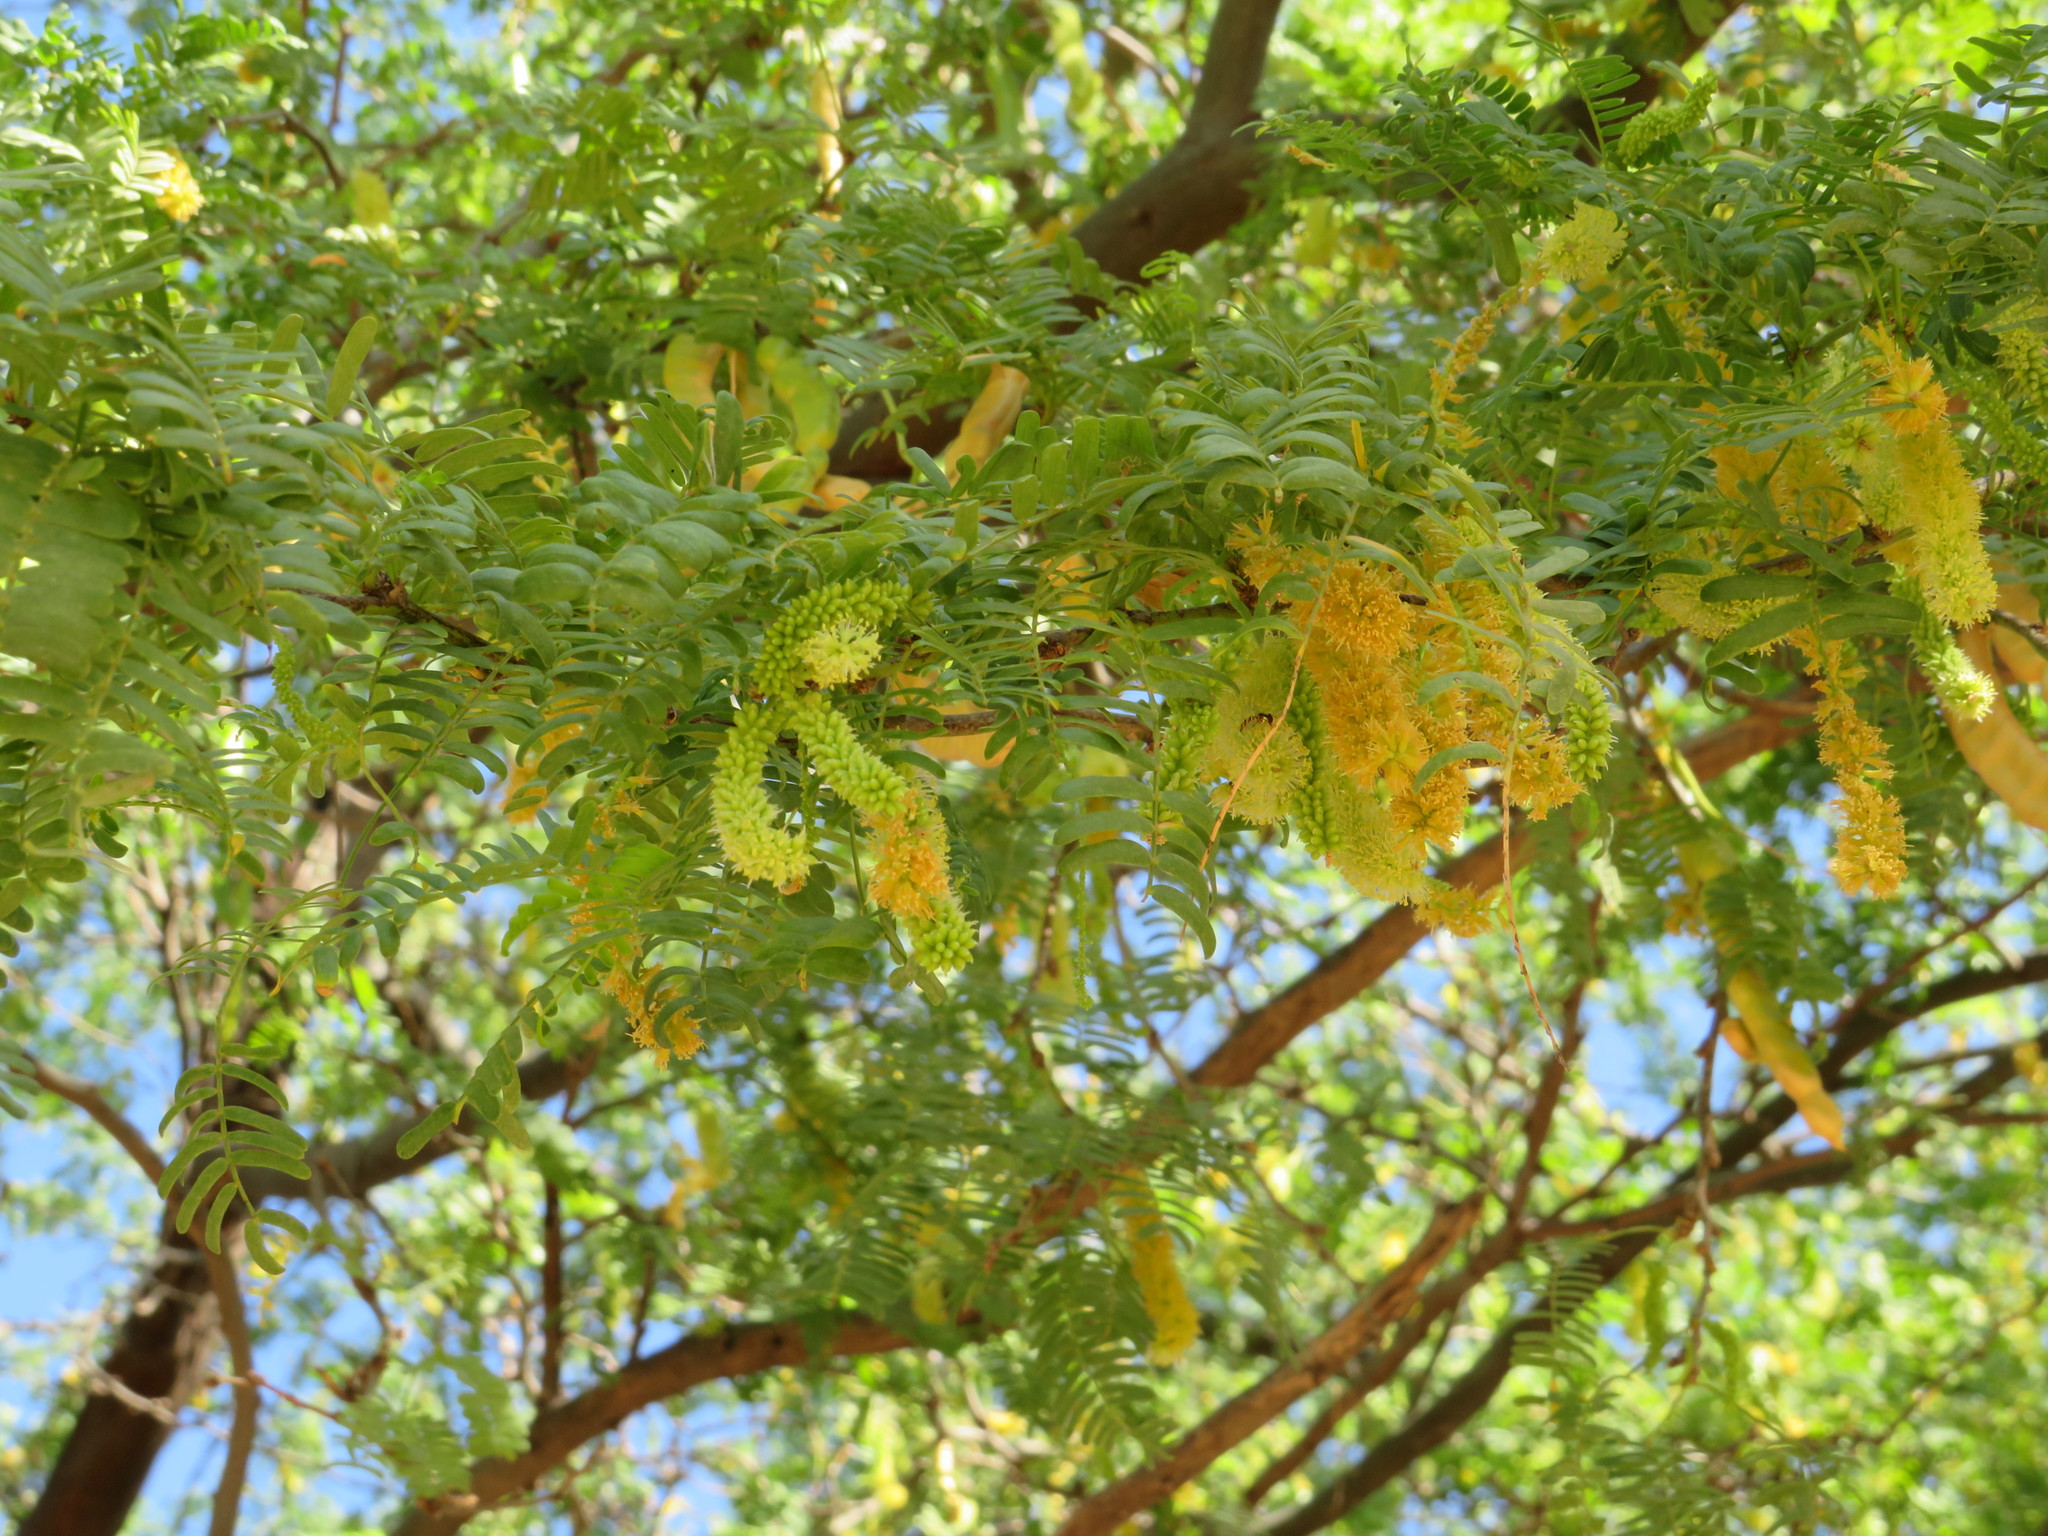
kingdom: Plantae
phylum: Tracheophyta
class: Magnoliopsida
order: Fabales
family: Fabaceae
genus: Prosopis
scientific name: Prosopis juliflora
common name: Mesquite
